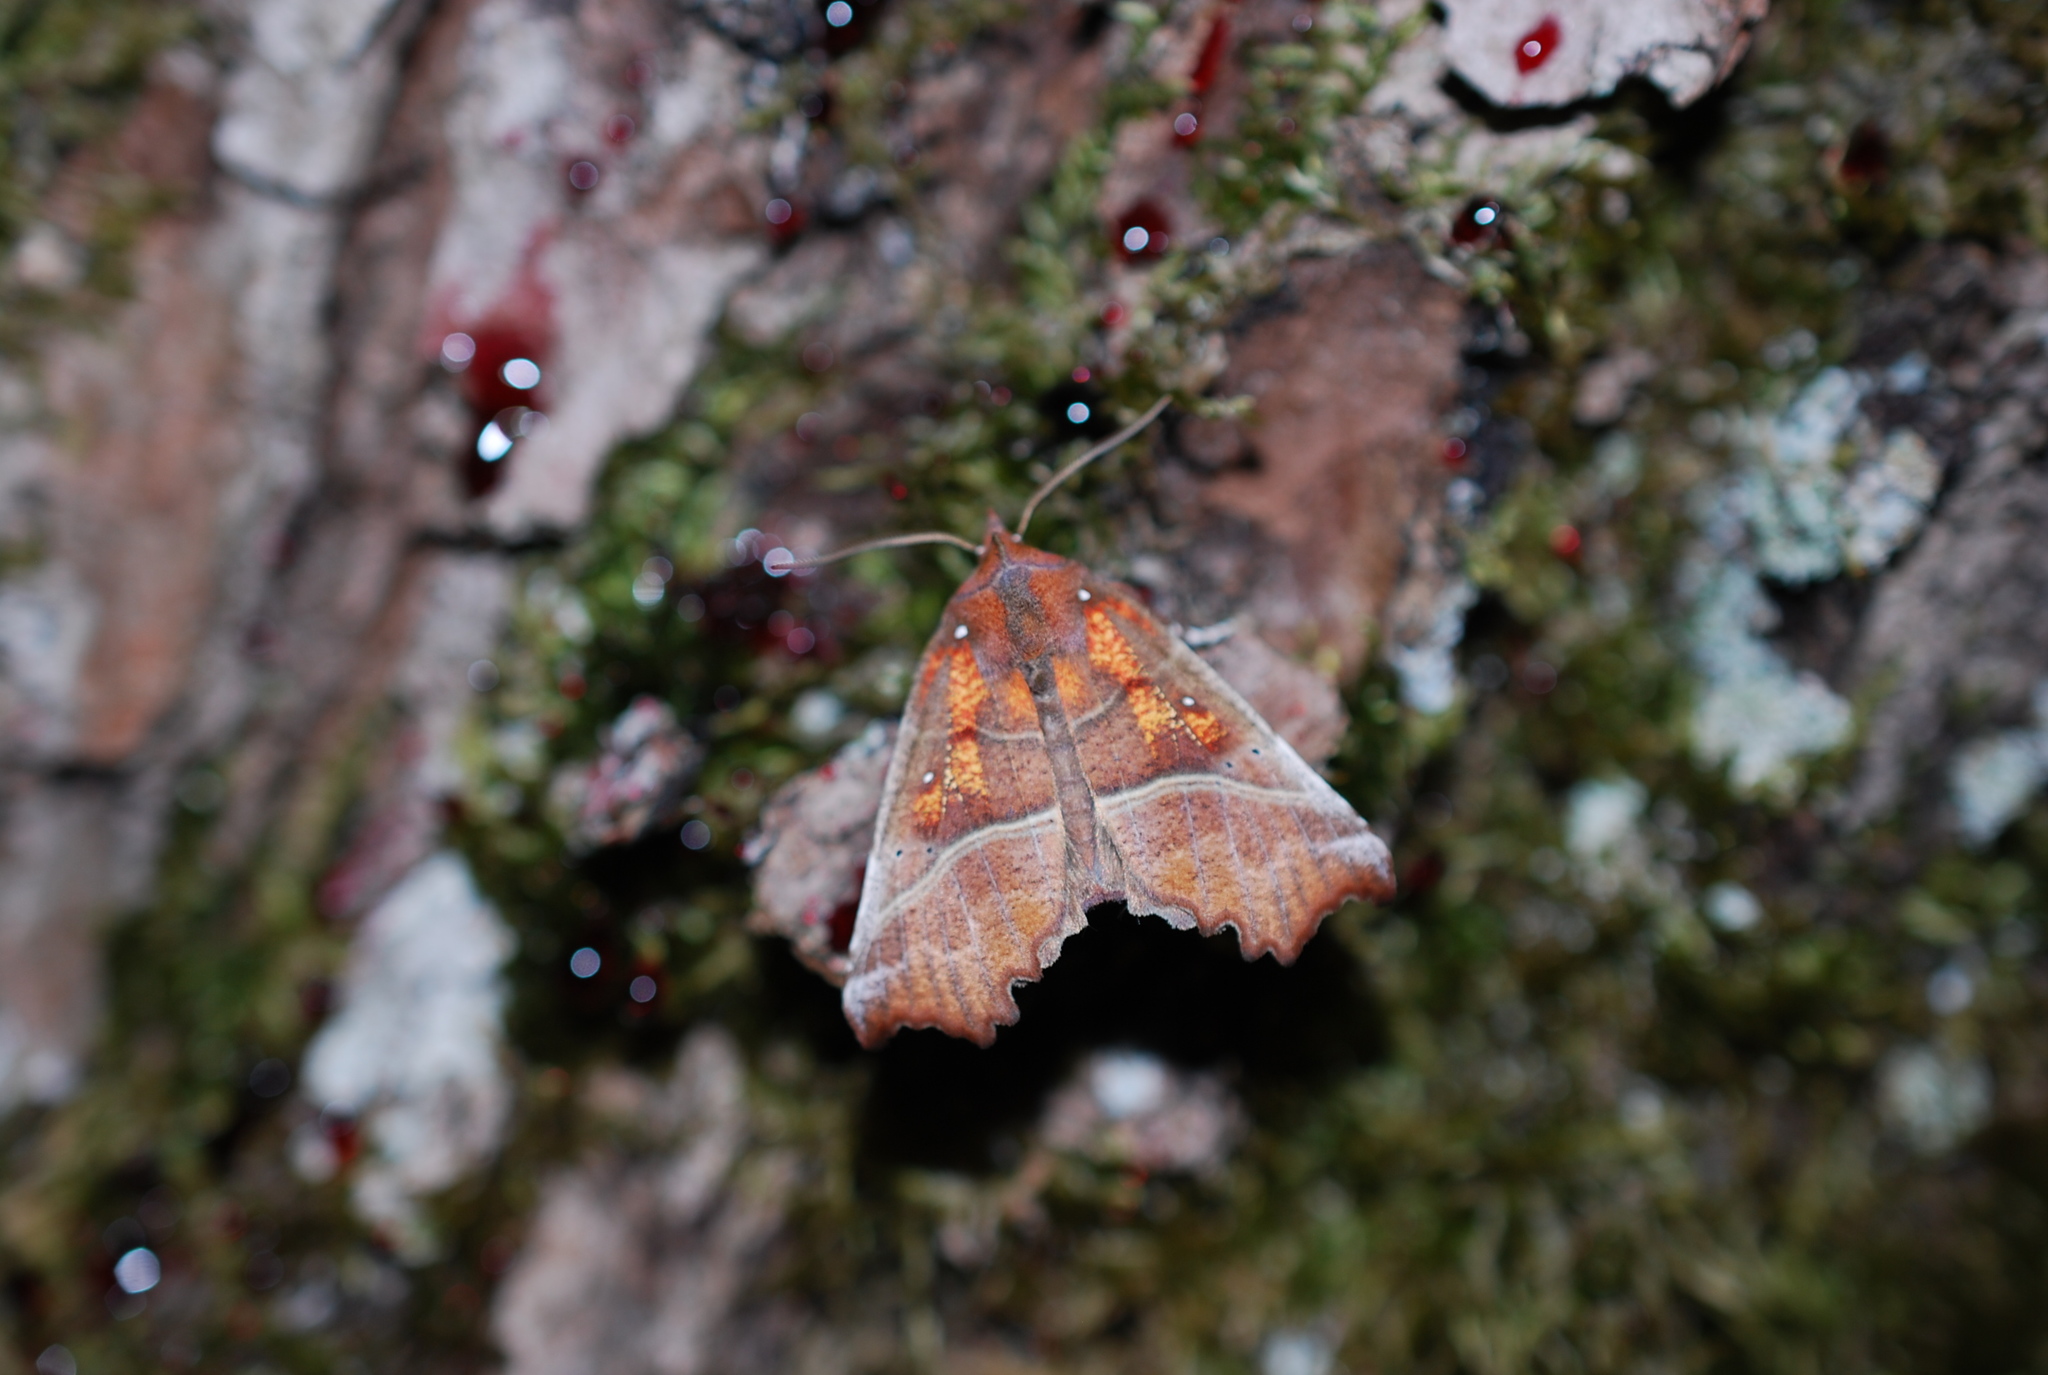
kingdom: Animalia
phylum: Arthropoda
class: Insecta
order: Lepidoptera
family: Erebidae
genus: Scoliopteryx
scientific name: Scoliopteryx libatrix
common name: Herald
